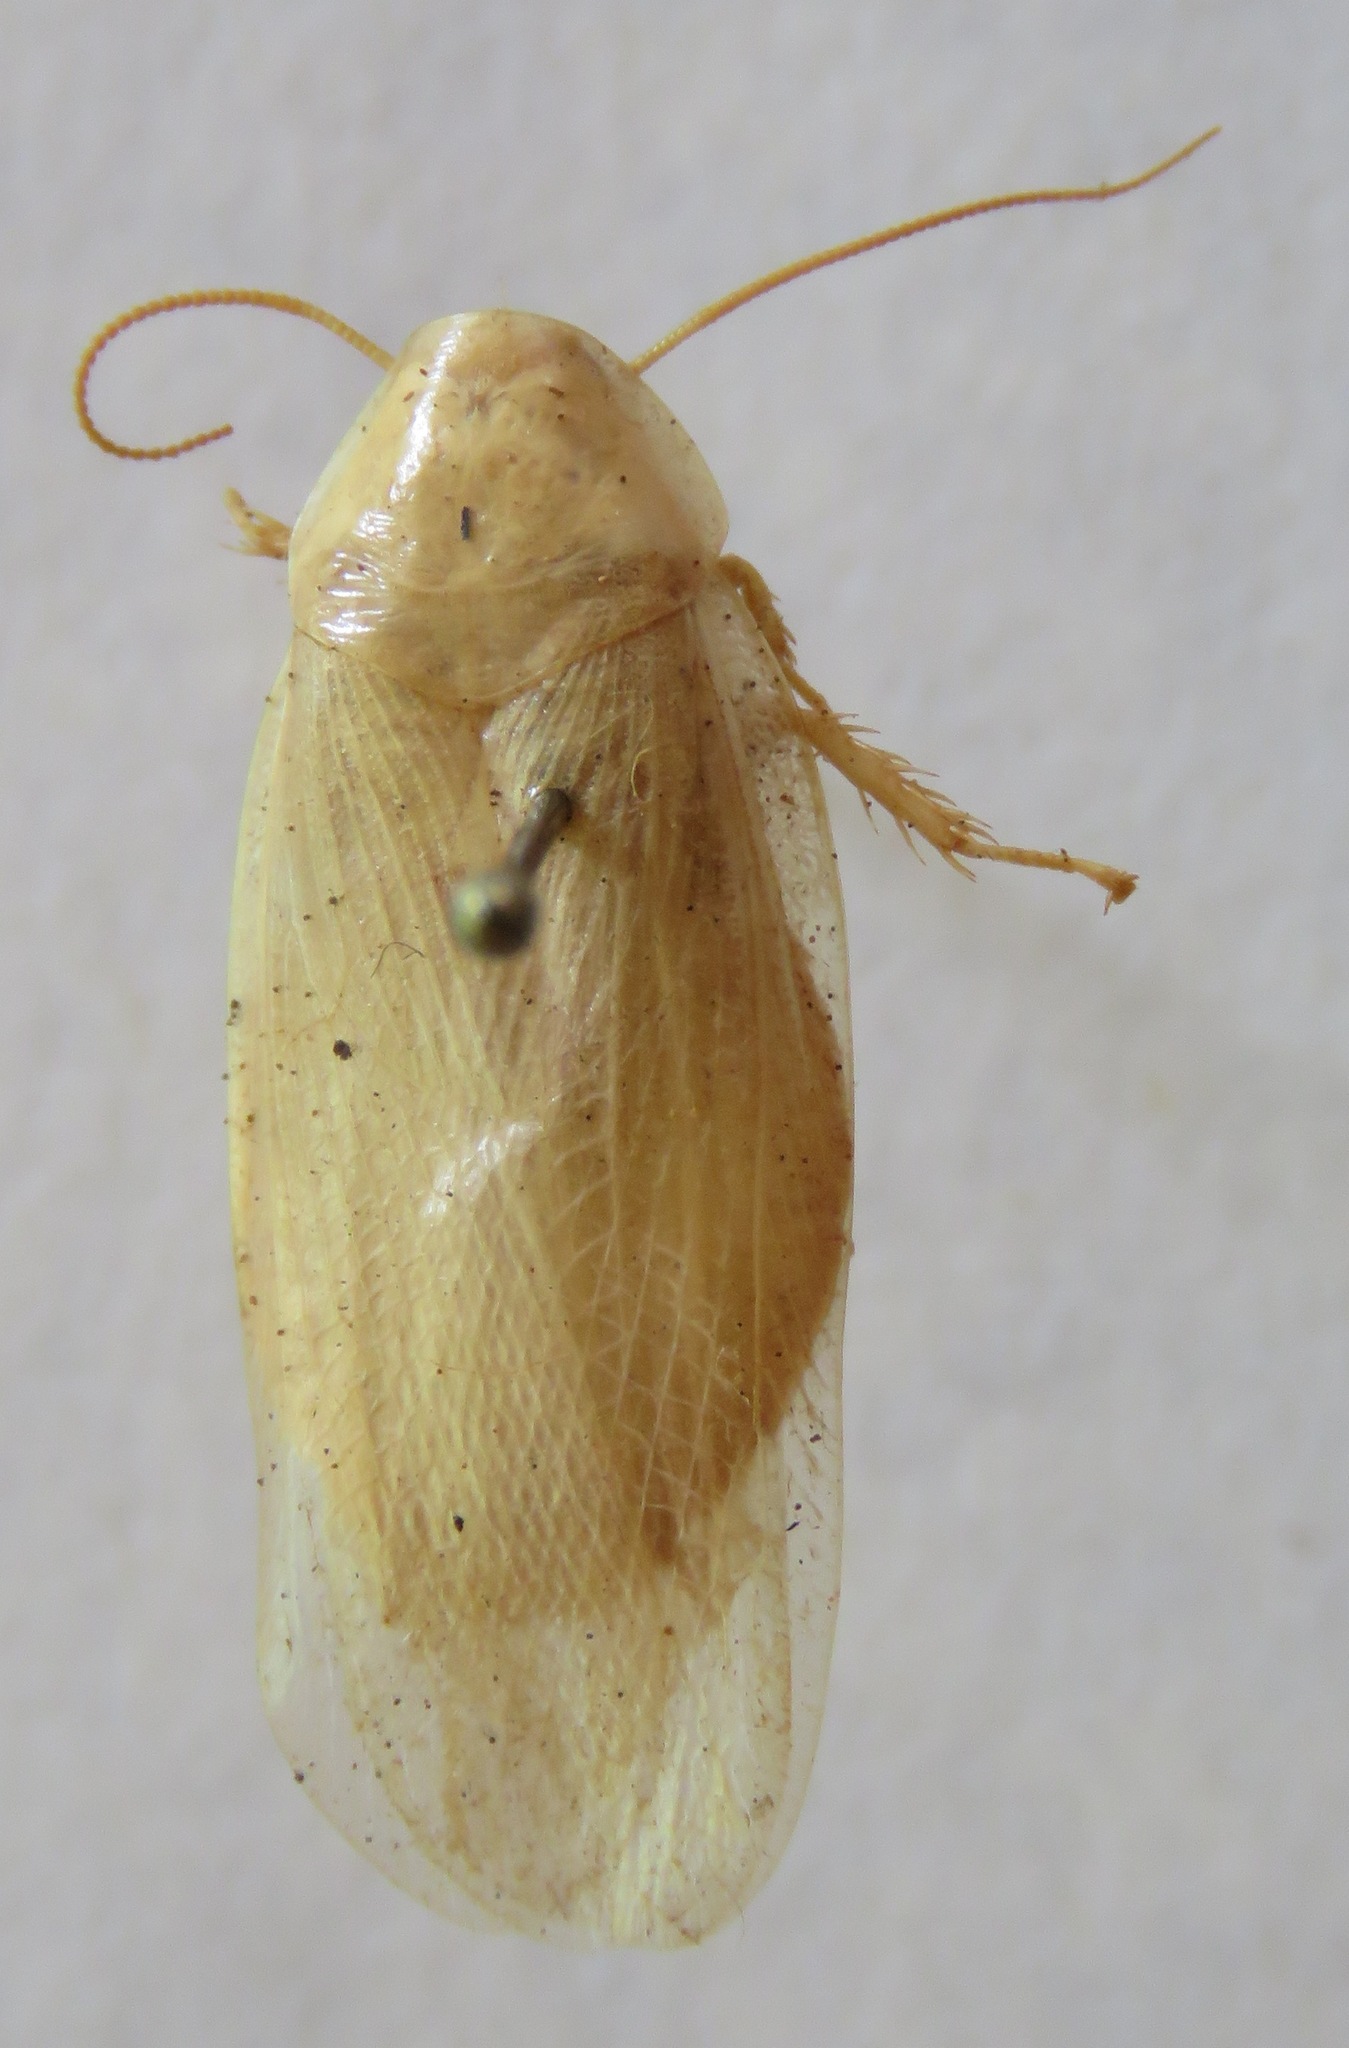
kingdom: Animalia
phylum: Arthropoda
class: Insecta
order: Blattodea
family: Blaberidae
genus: Panchlora
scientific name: Panchlora nivea
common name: Cuban cockroach
